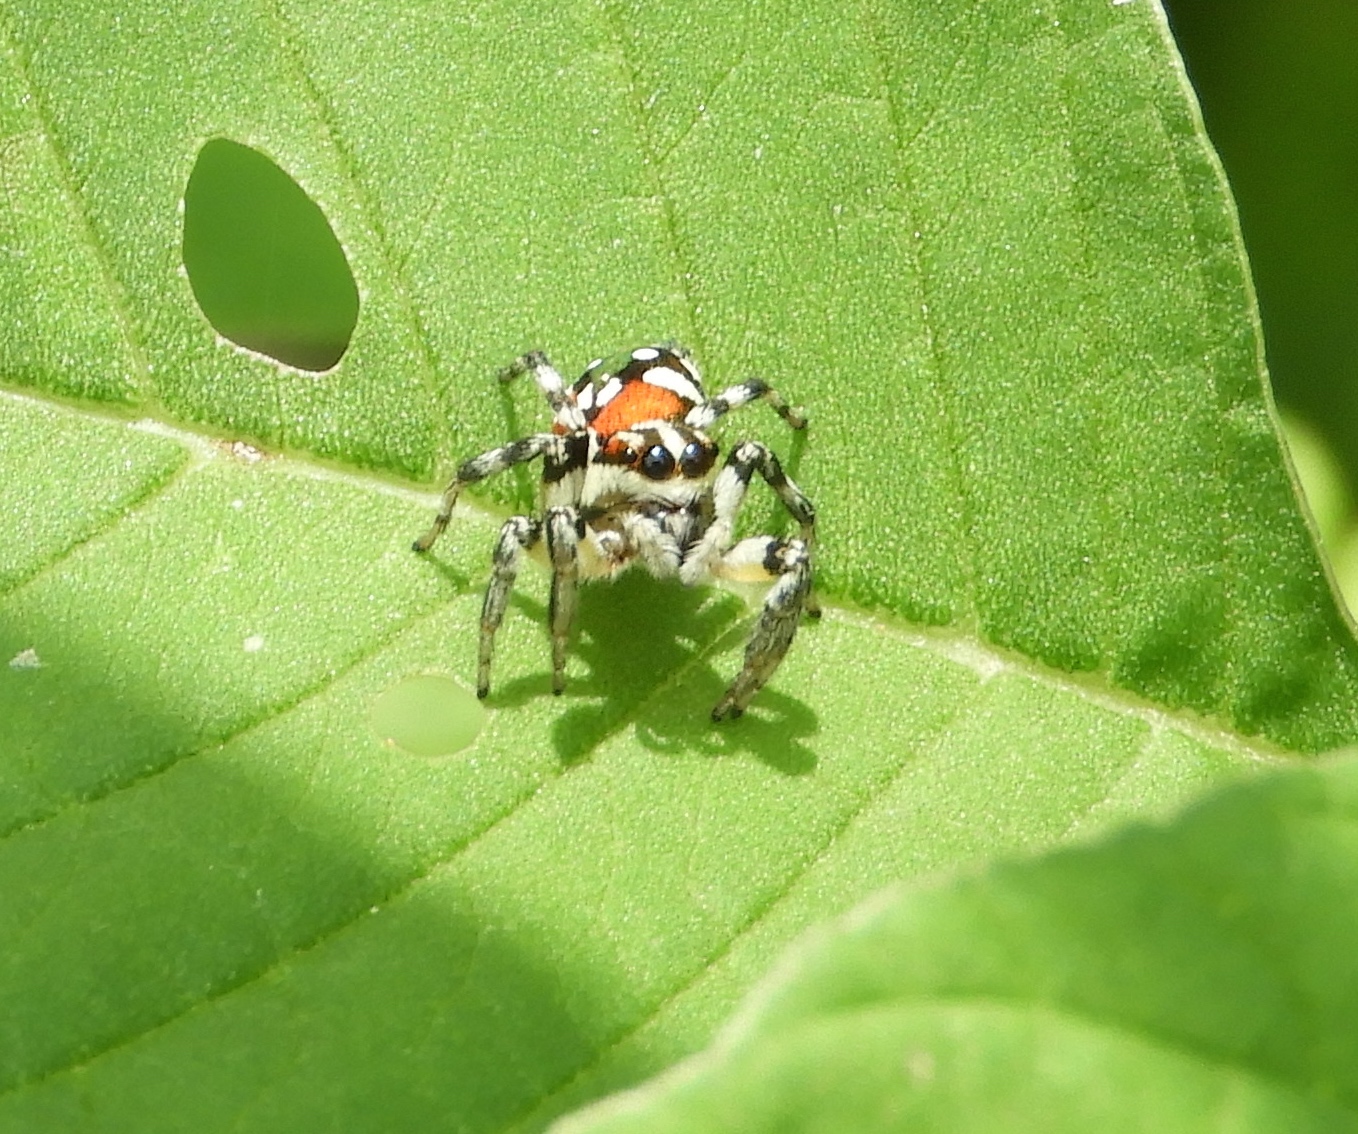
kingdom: Animalia
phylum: Arthropoda
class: Arachnida
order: Araneae
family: Salticidae
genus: Nycerella
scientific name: Nycerella delecta
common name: Jumping spiders
